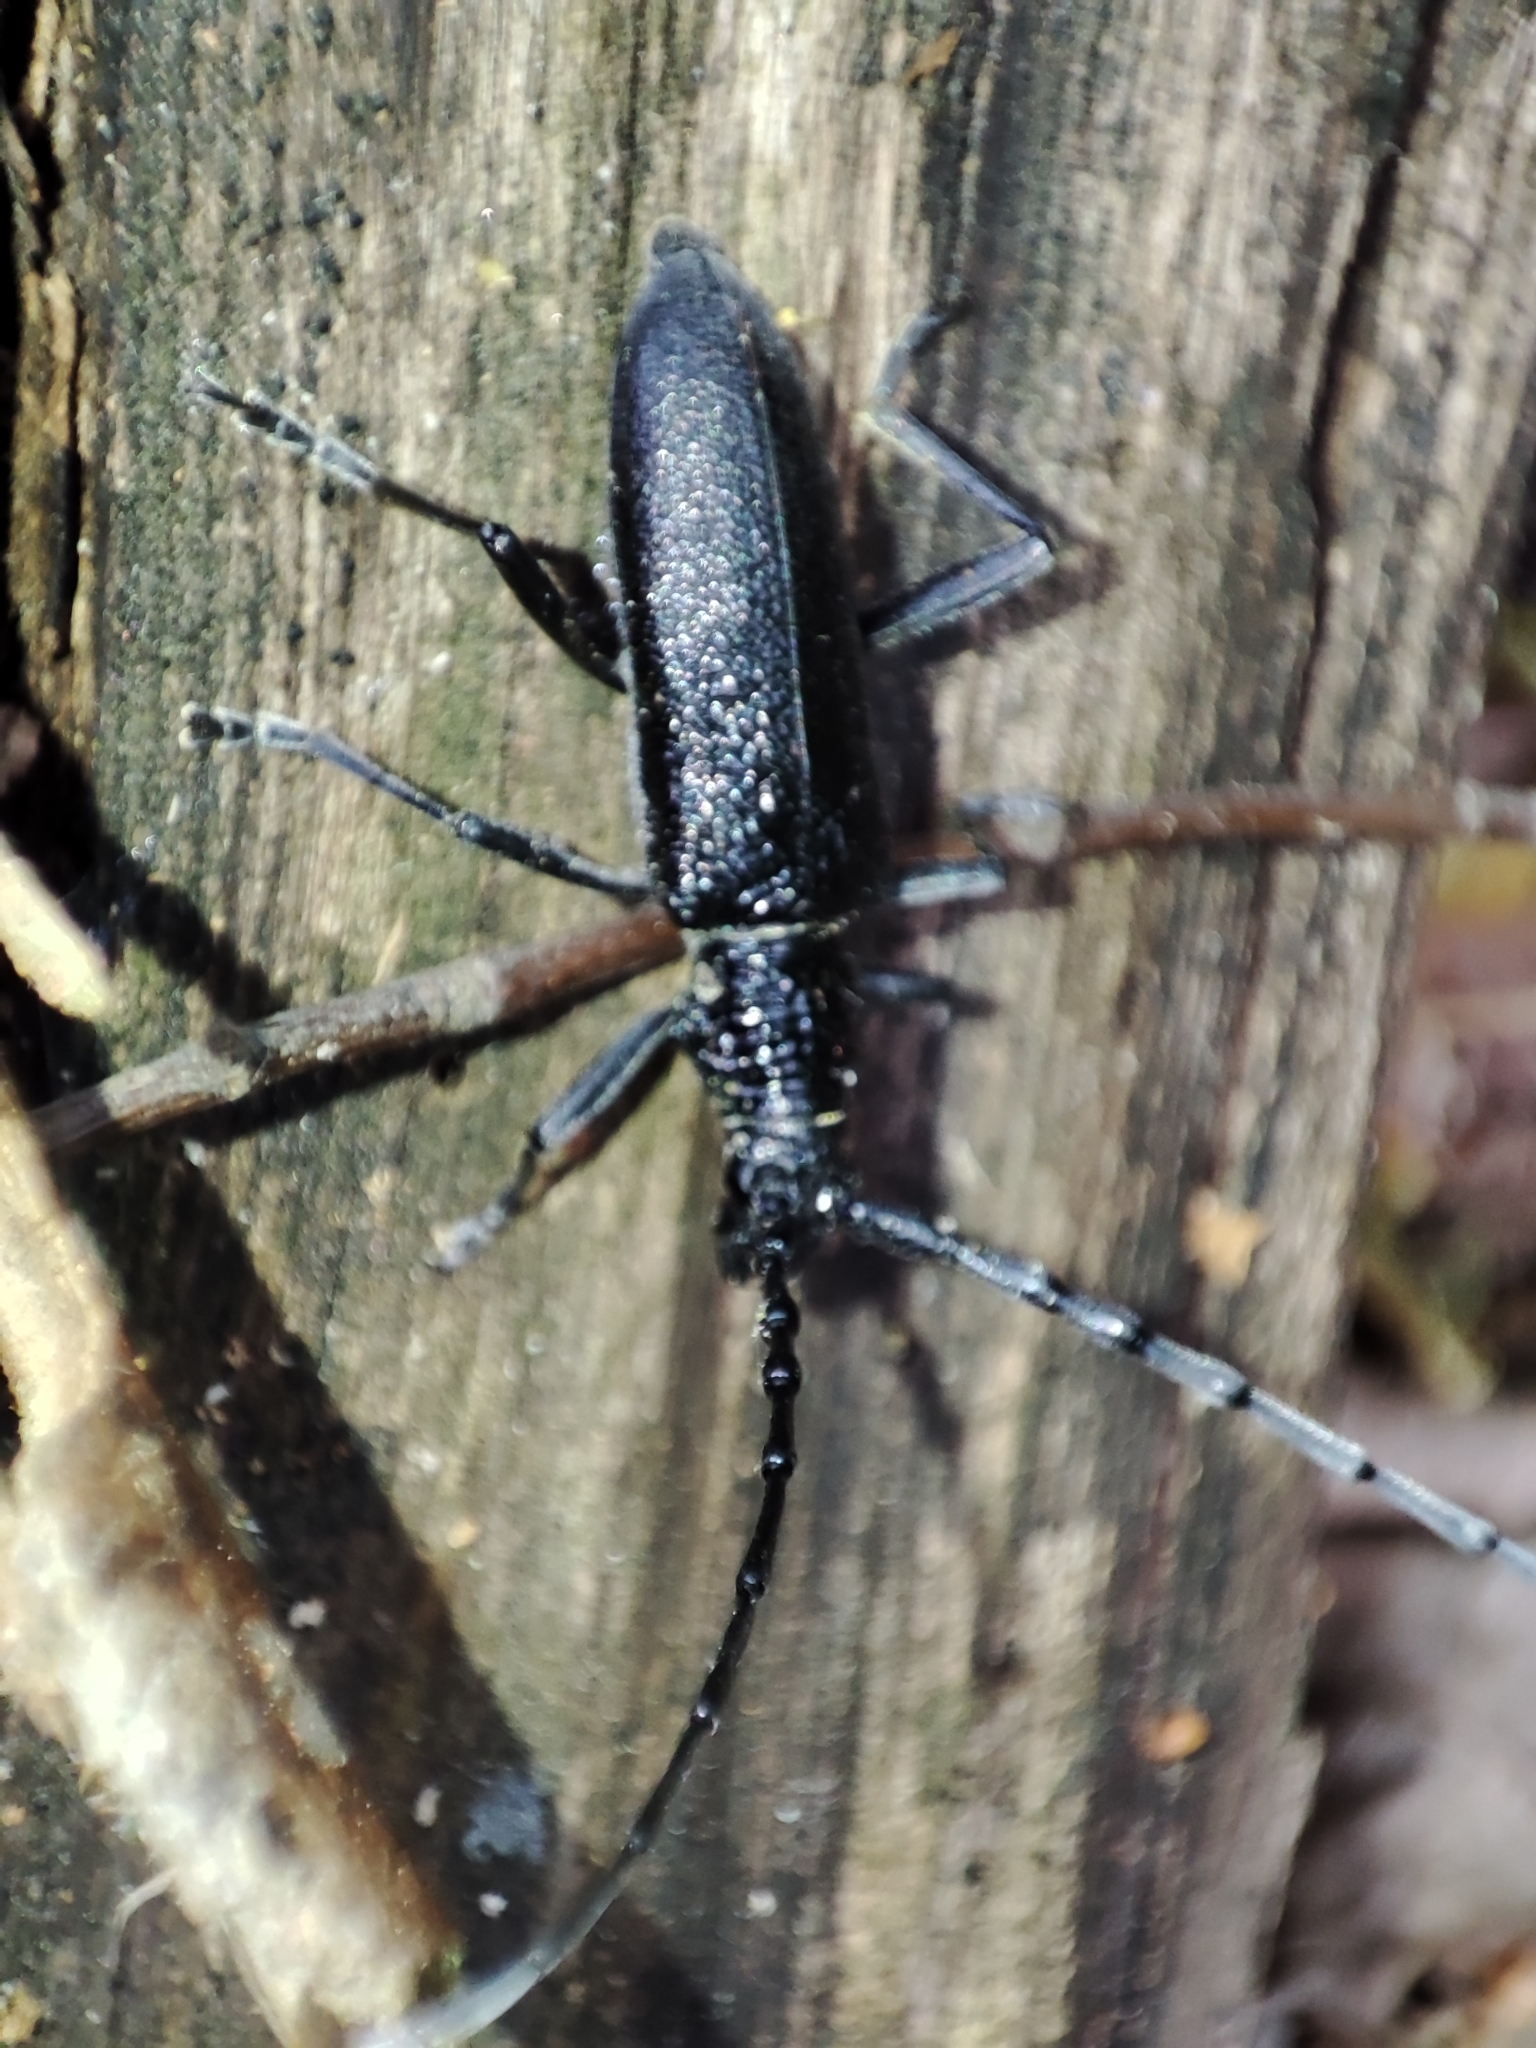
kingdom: Animalia
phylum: Arthropoda
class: Insecta
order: Coleoptera
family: Cerambycidae
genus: Cerambyx
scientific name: Cerambyx scopolii
